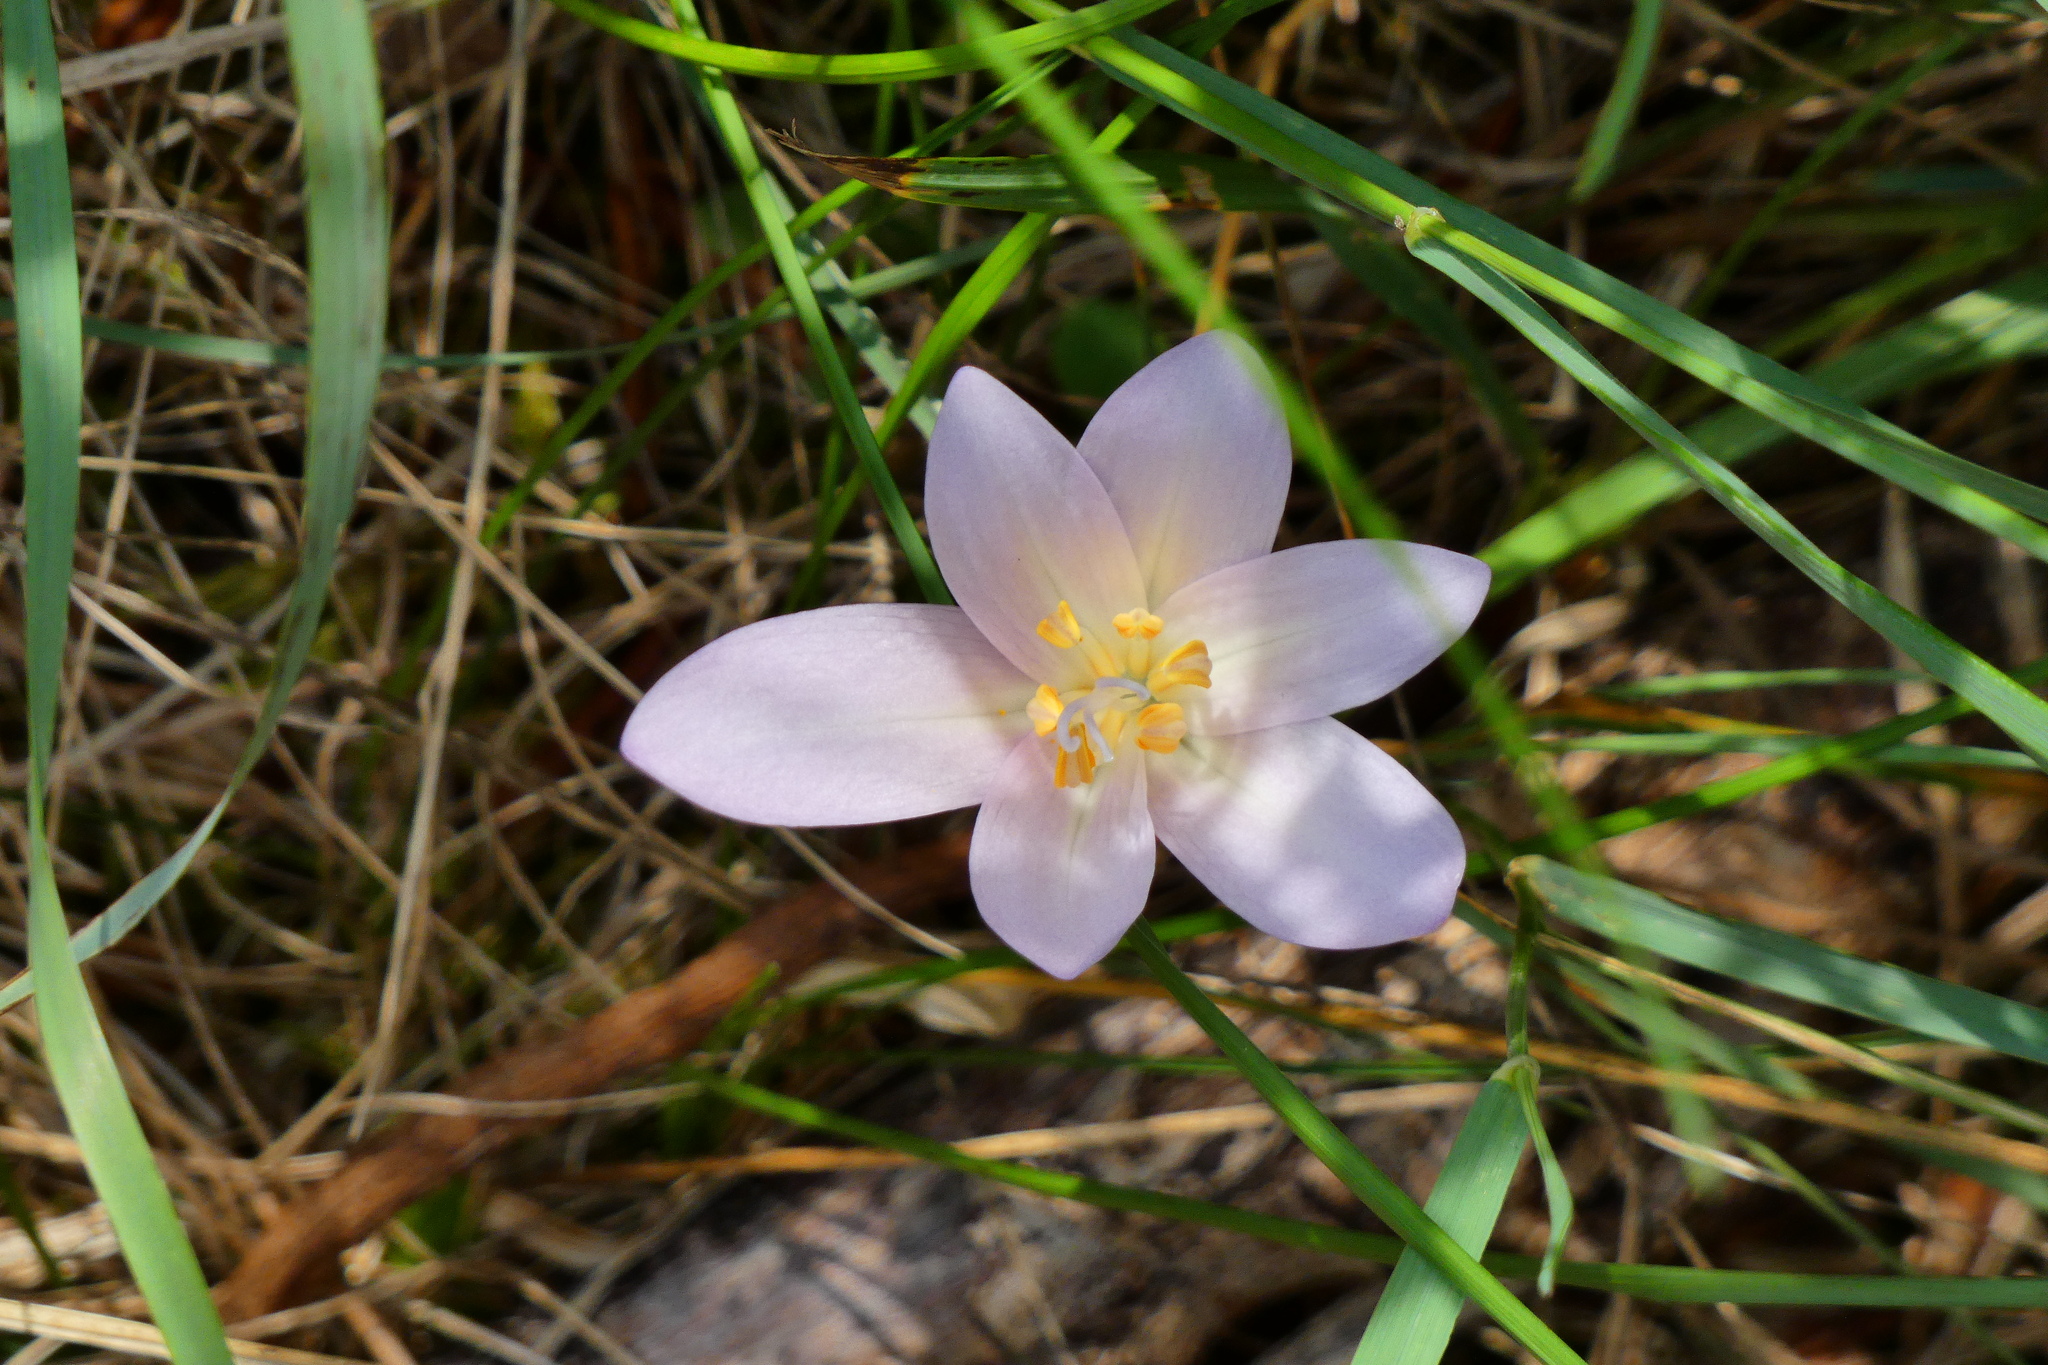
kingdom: Plantae
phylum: Tracheophyta
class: Liliopsida
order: Liliales
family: Colchicaceae
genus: Colchicum
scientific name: Colchicum autumnale
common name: Autumn crocus
